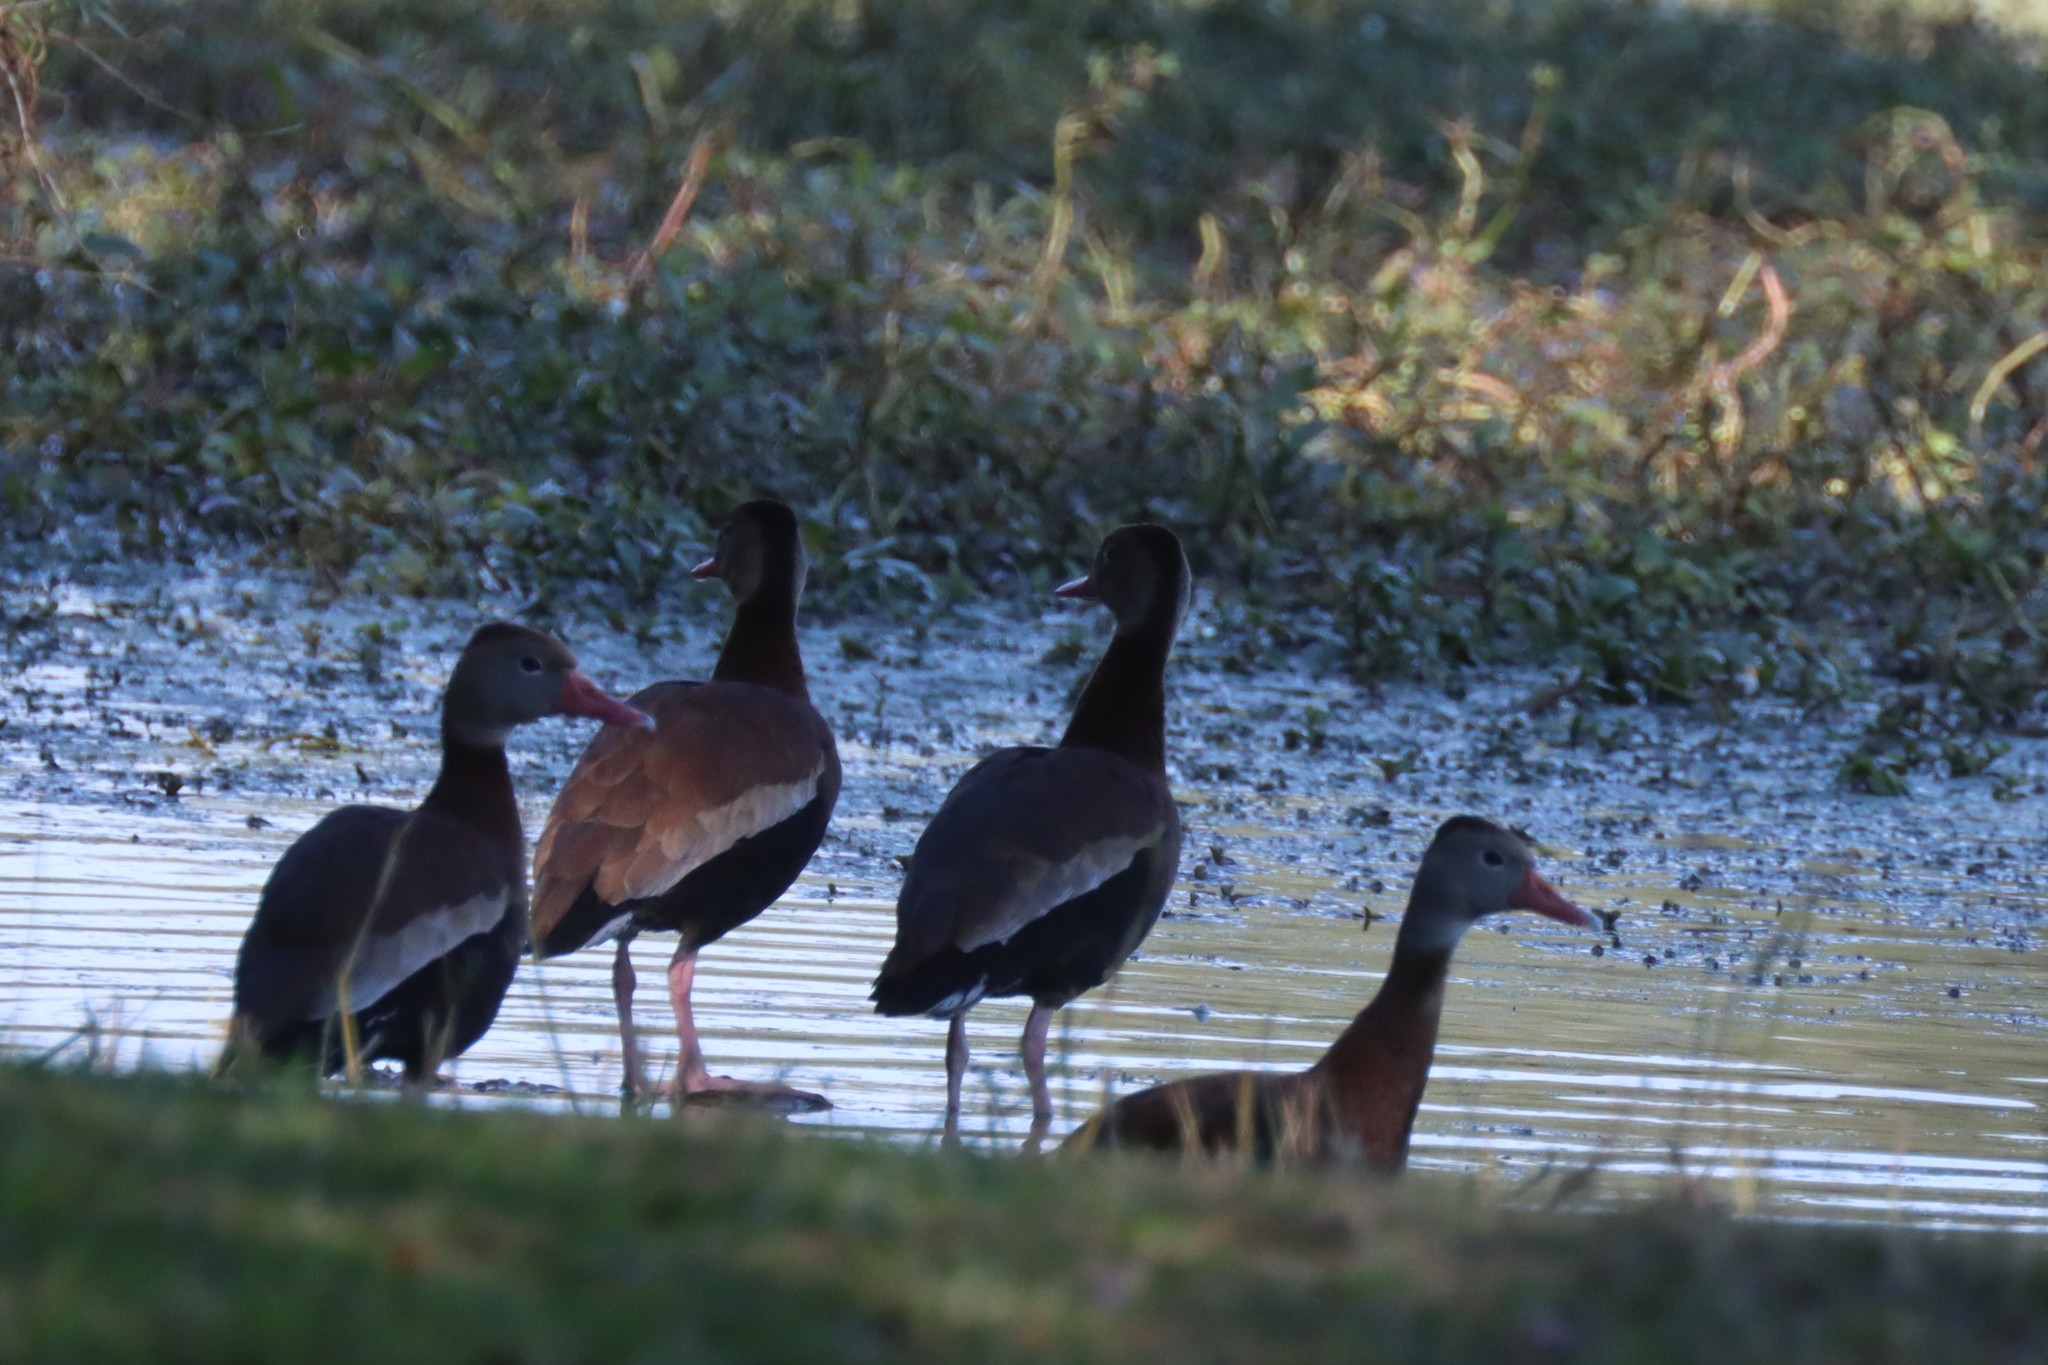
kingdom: Animalia
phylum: Chordata
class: Aves
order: Anseriformes
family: Anatidae
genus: Dendrocygna
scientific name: Dendrocygna autumnalis
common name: Black-bellied whistling duck
